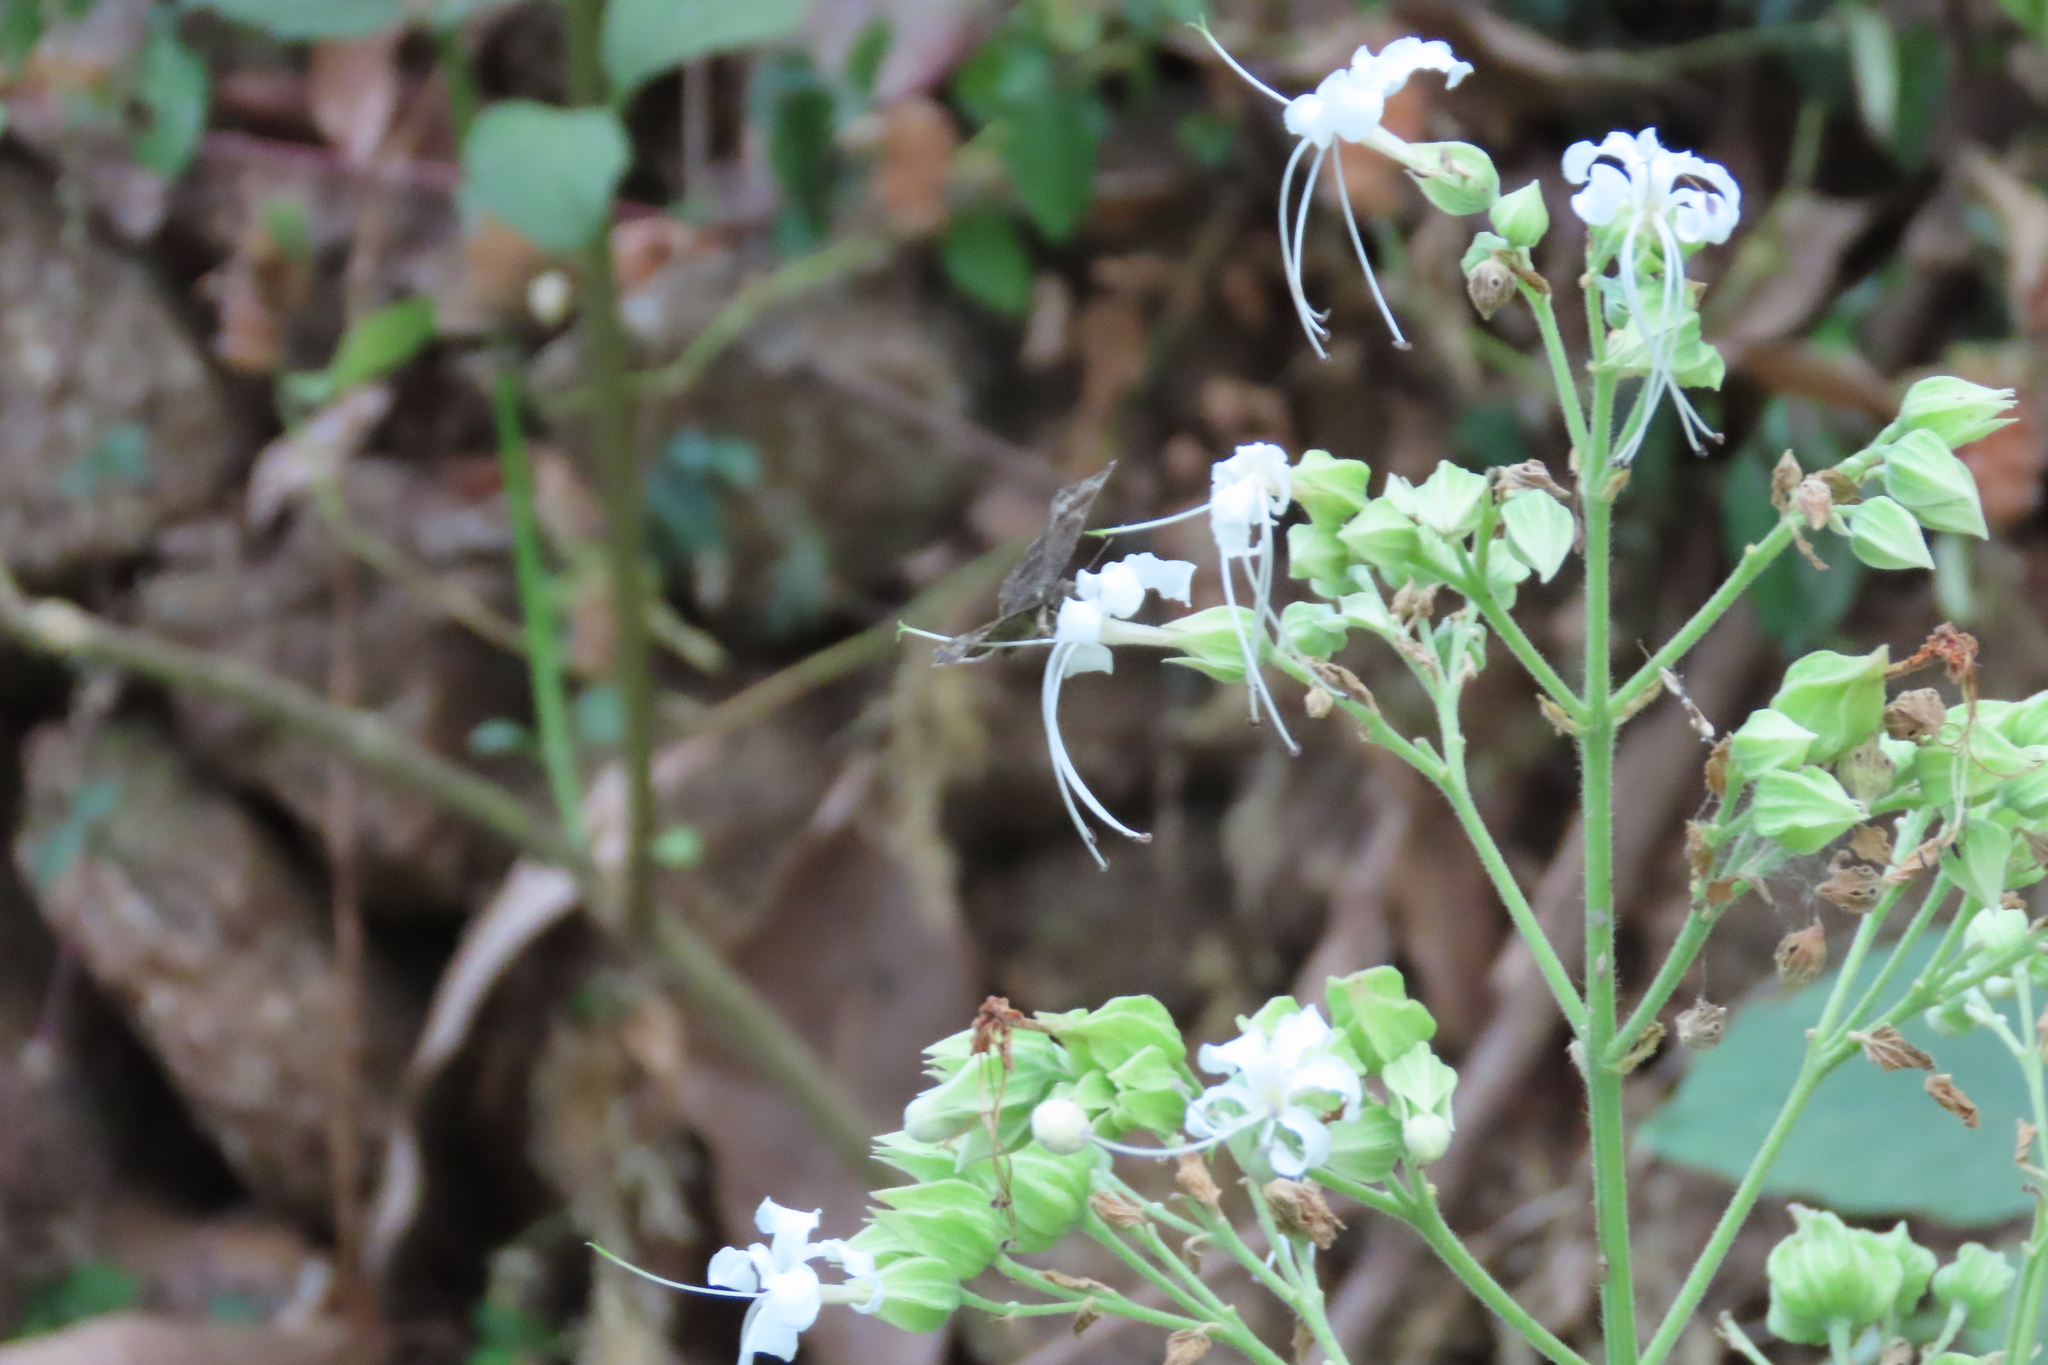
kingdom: Animalia
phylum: Arthropoda
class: Insecta
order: Lepidoptera
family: Hesperiidae
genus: Sarangesa
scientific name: Sarangesa dasahara
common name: Common small flat
